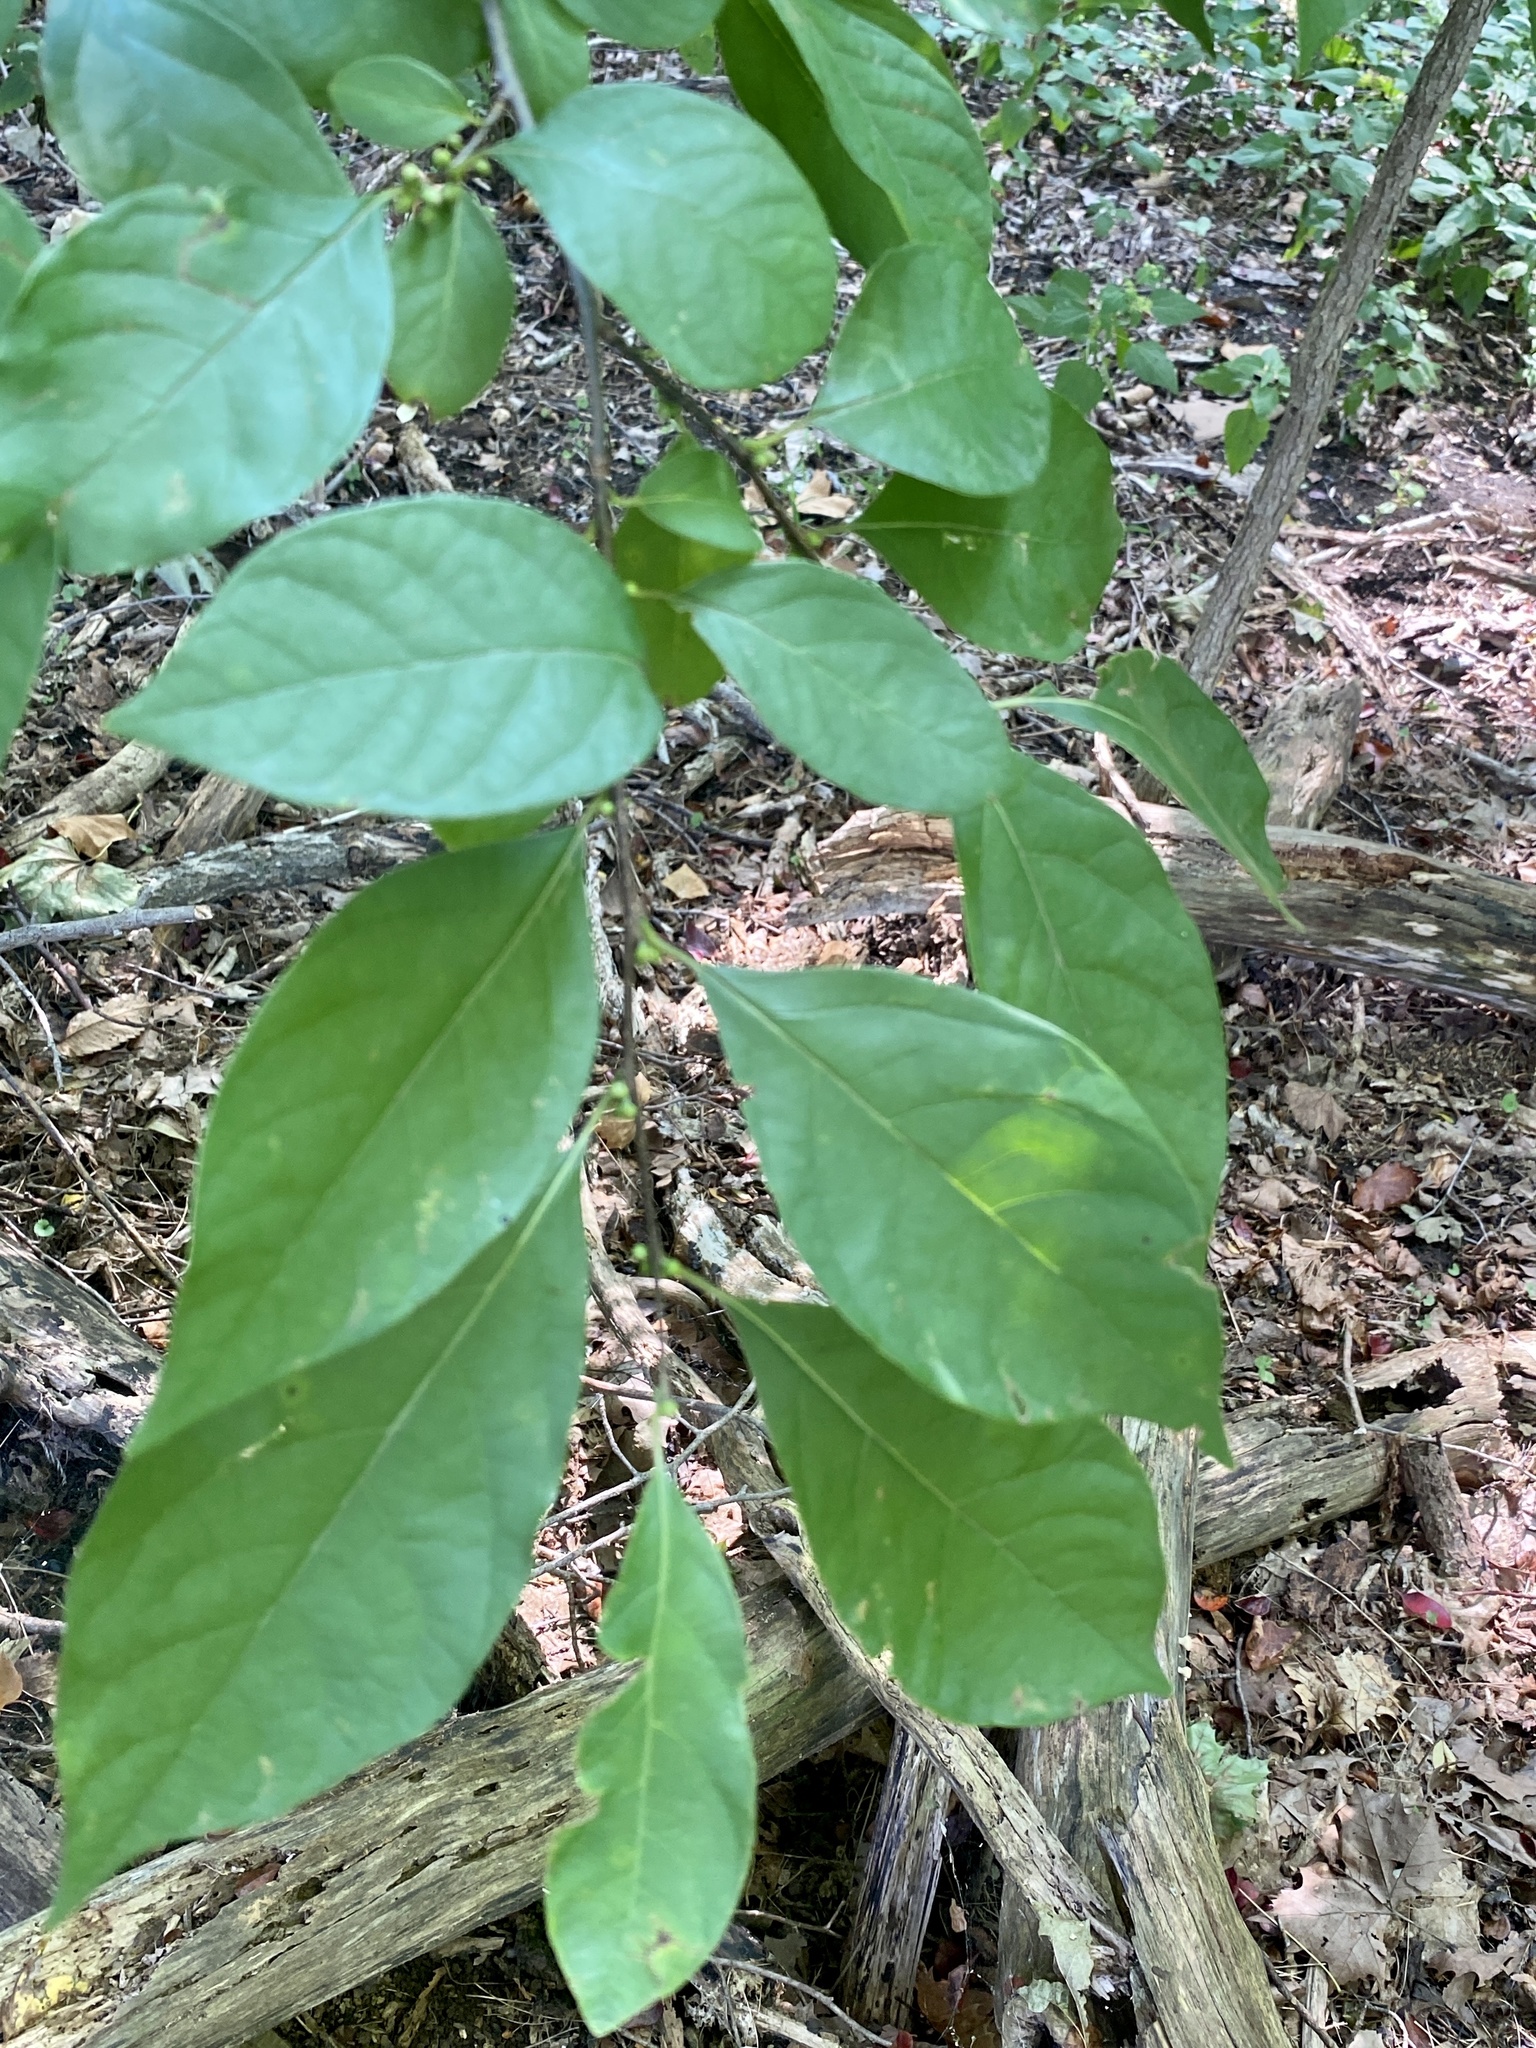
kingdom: Plantae
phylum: Tracheophyta
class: Magnoliopsida
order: Laurales
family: Lauraceae
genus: Lindera
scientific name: Lindera benzoin
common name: Spicebush
